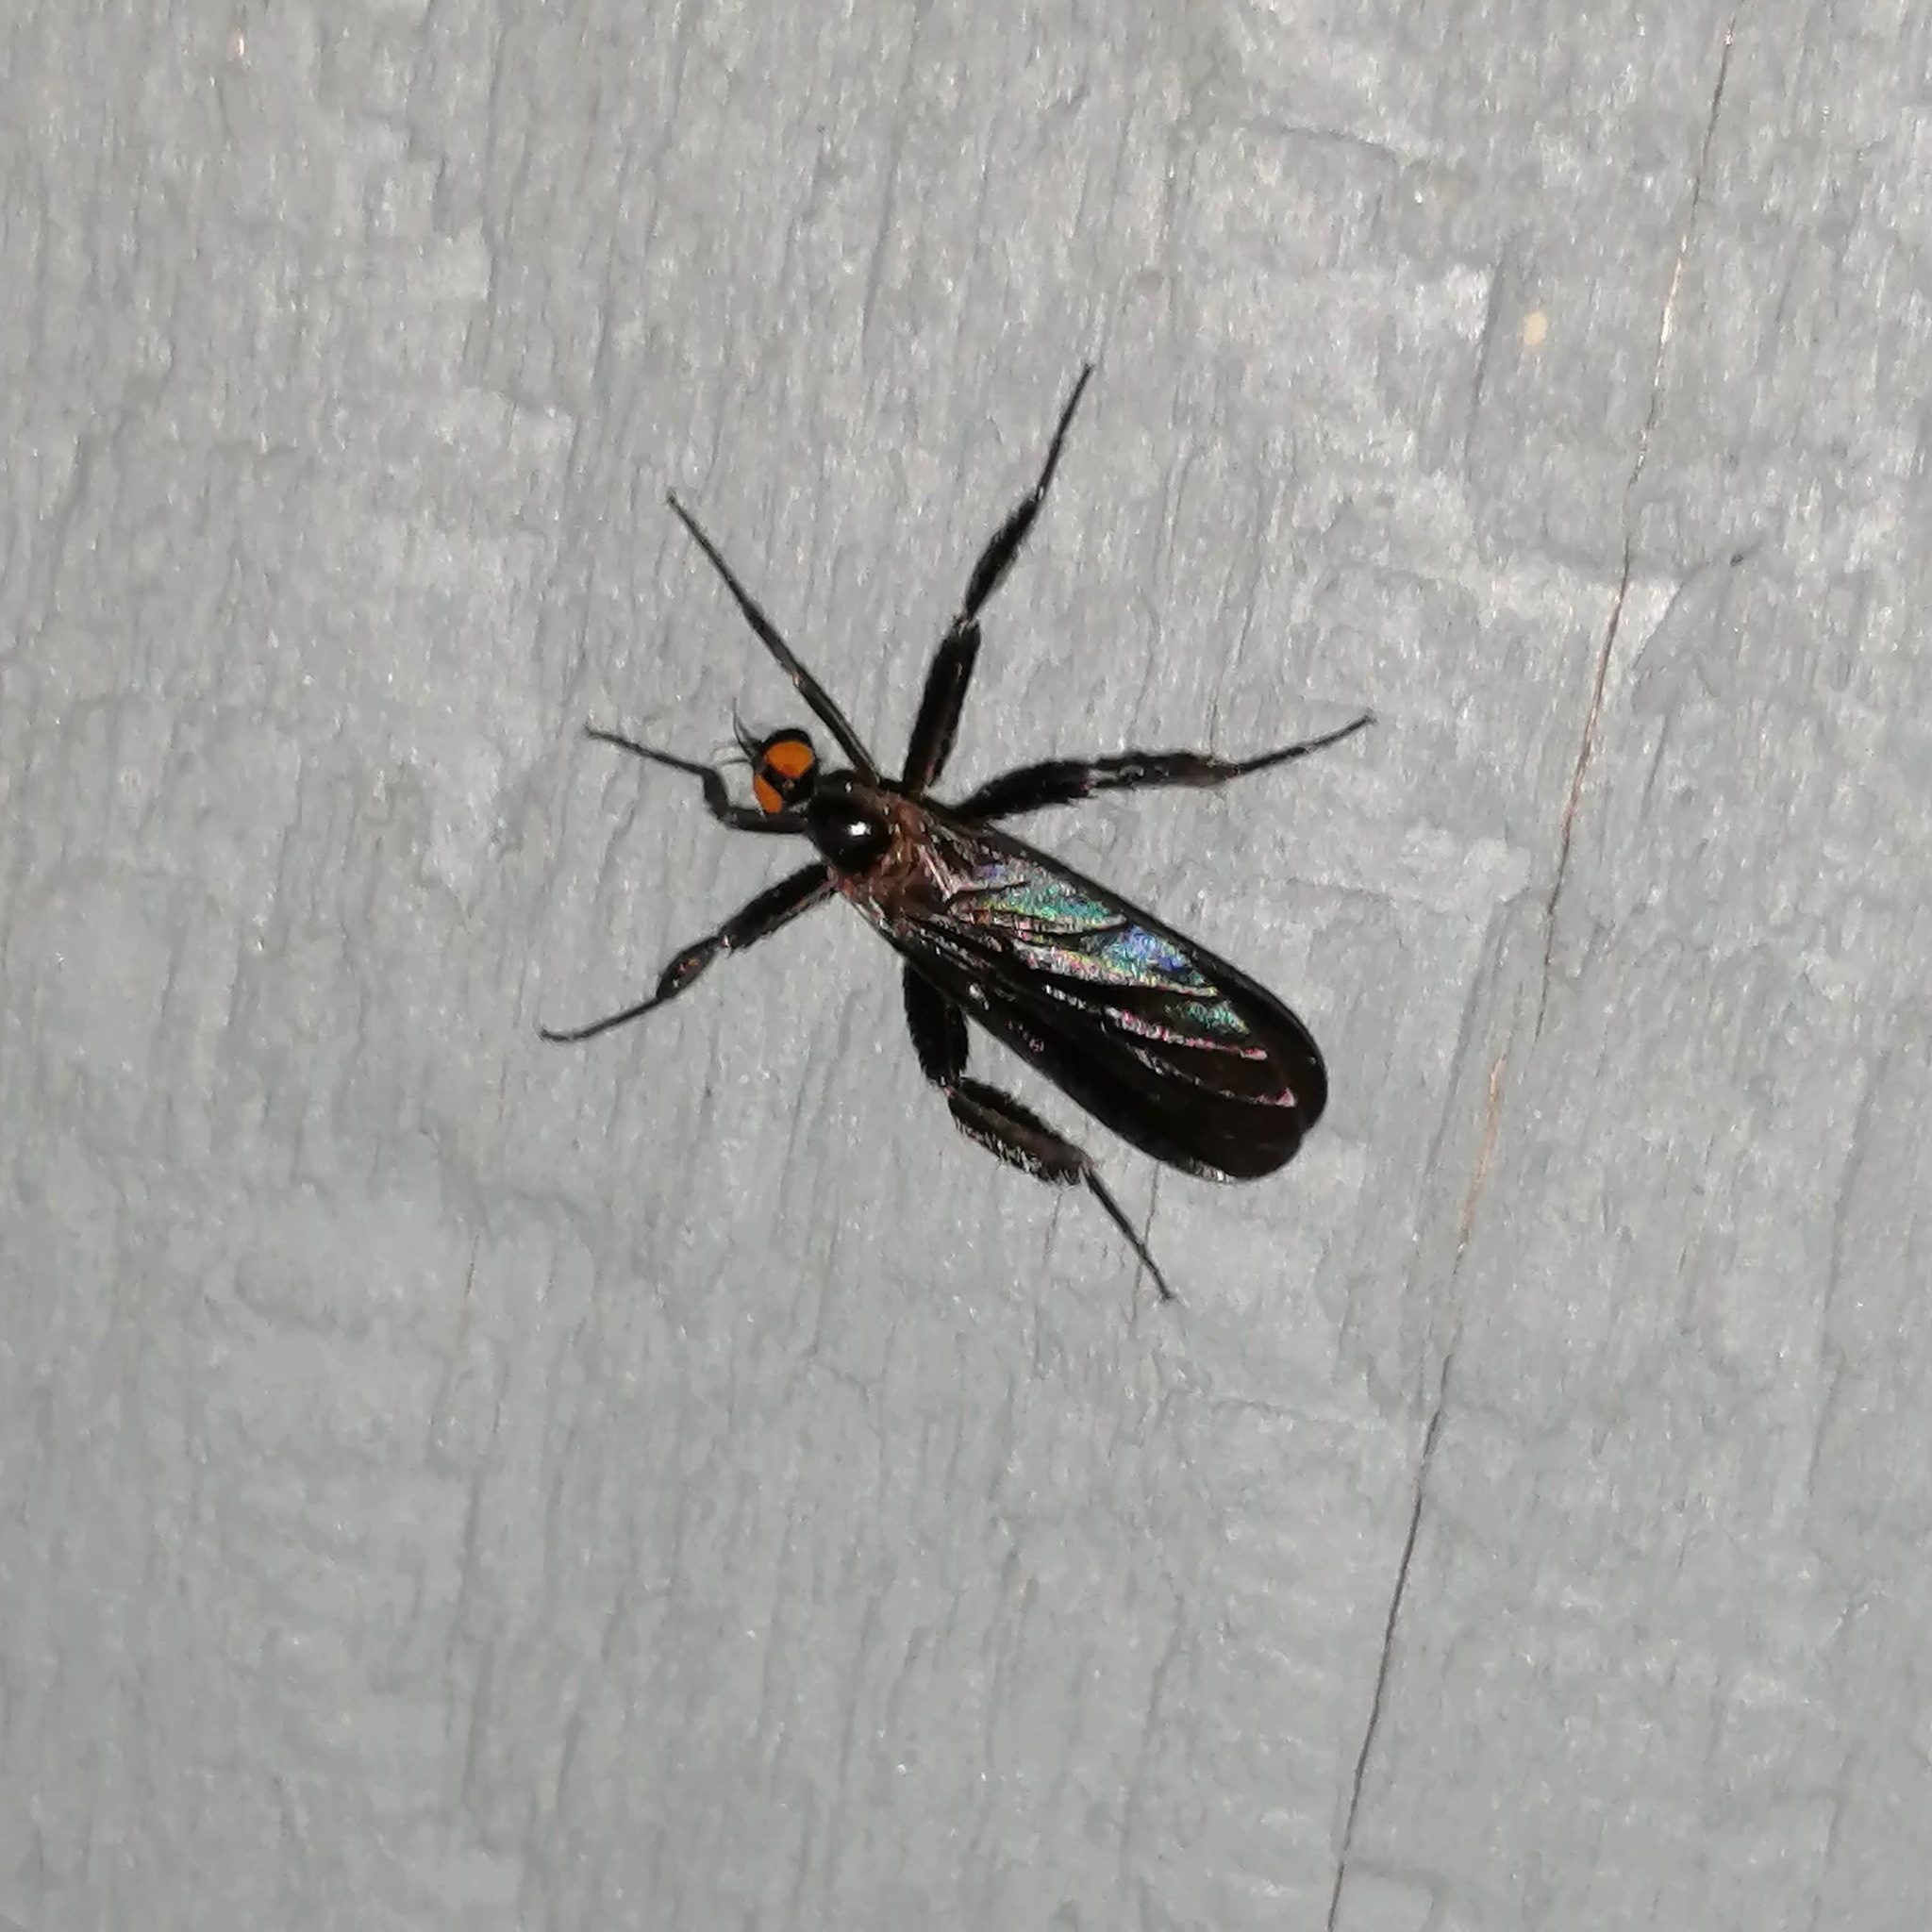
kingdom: Animalia
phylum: Arthropoda
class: Insecta
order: Diptera
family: Empididae
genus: Rhamphomyia
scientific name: Rhamphomyia longicauda
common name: Long-tailed dance fly
